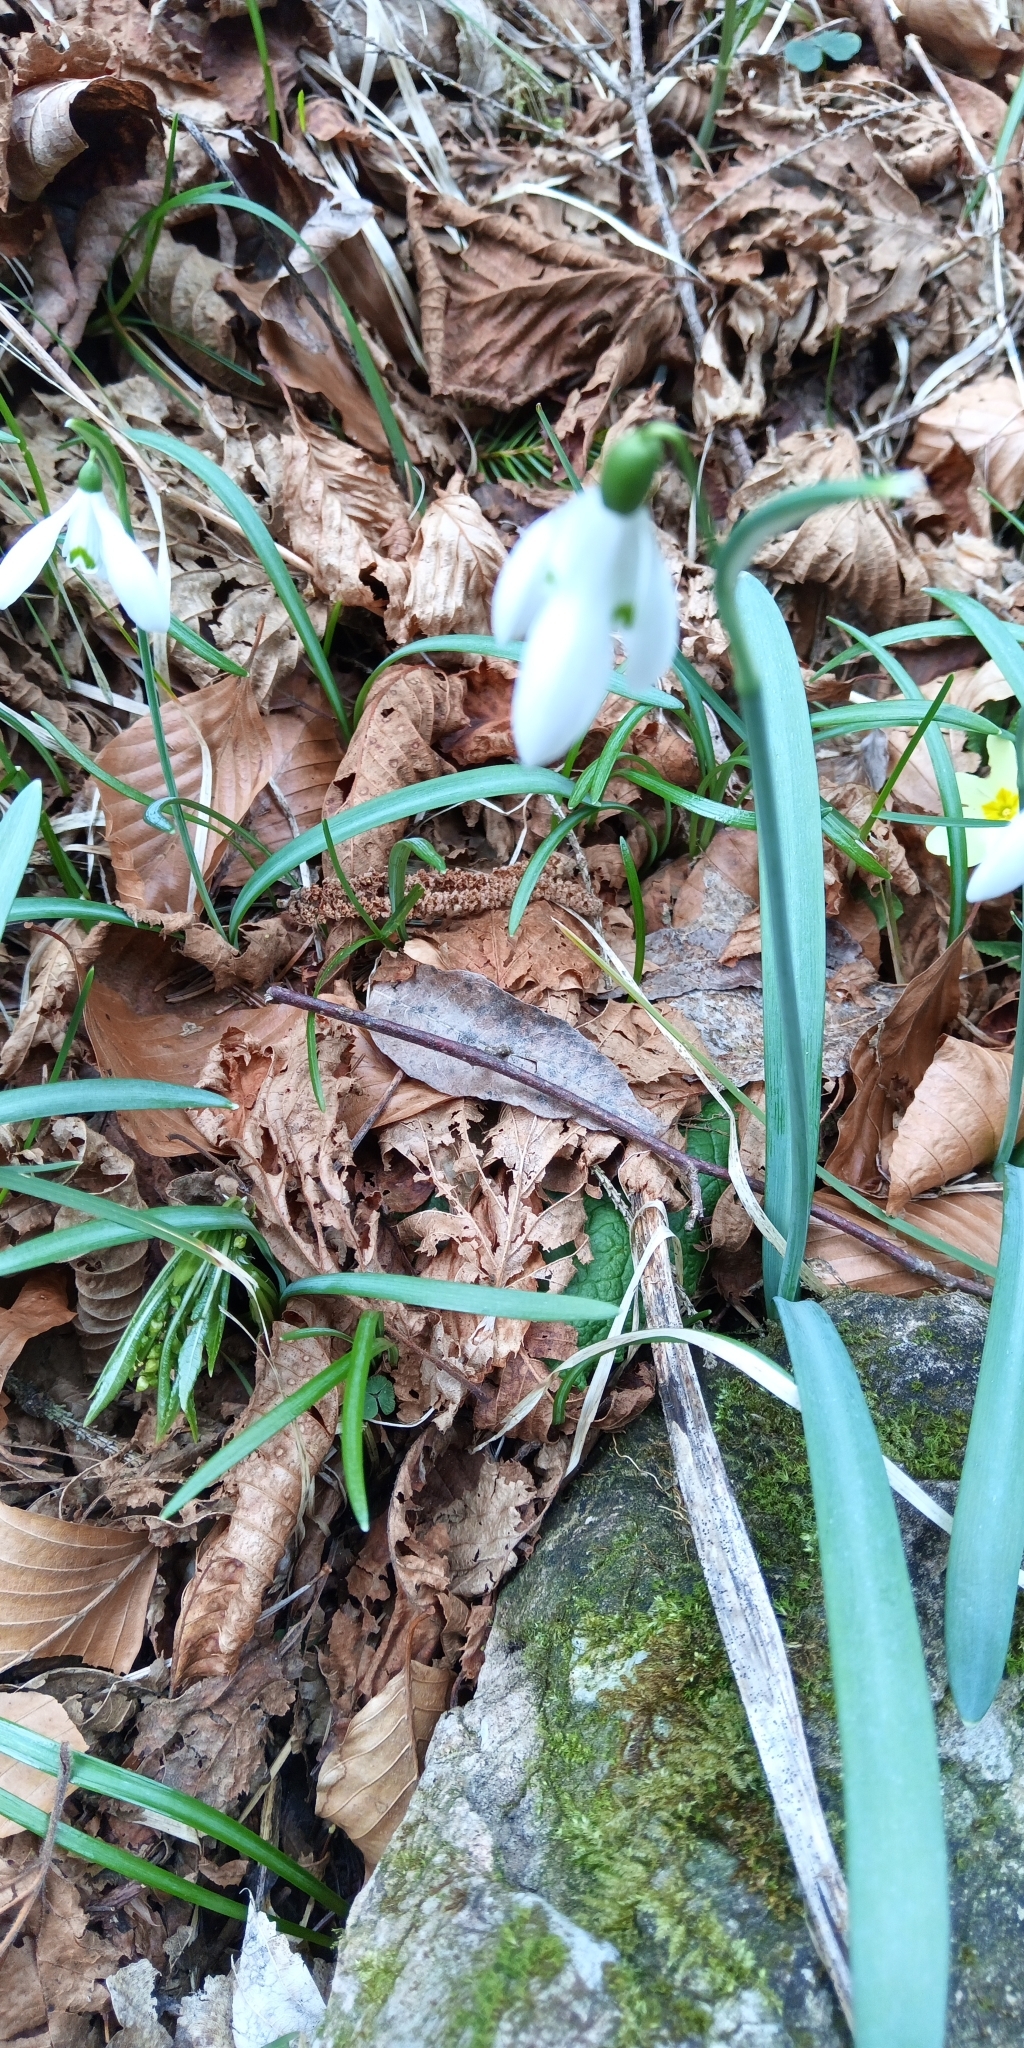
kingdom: Plantae
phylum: Tracheophyta
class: Liliopsida
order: Asparagales
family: Amaryllidaceae
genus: Galanthus
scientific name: Galanthus nivalis
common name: Snowdrop
